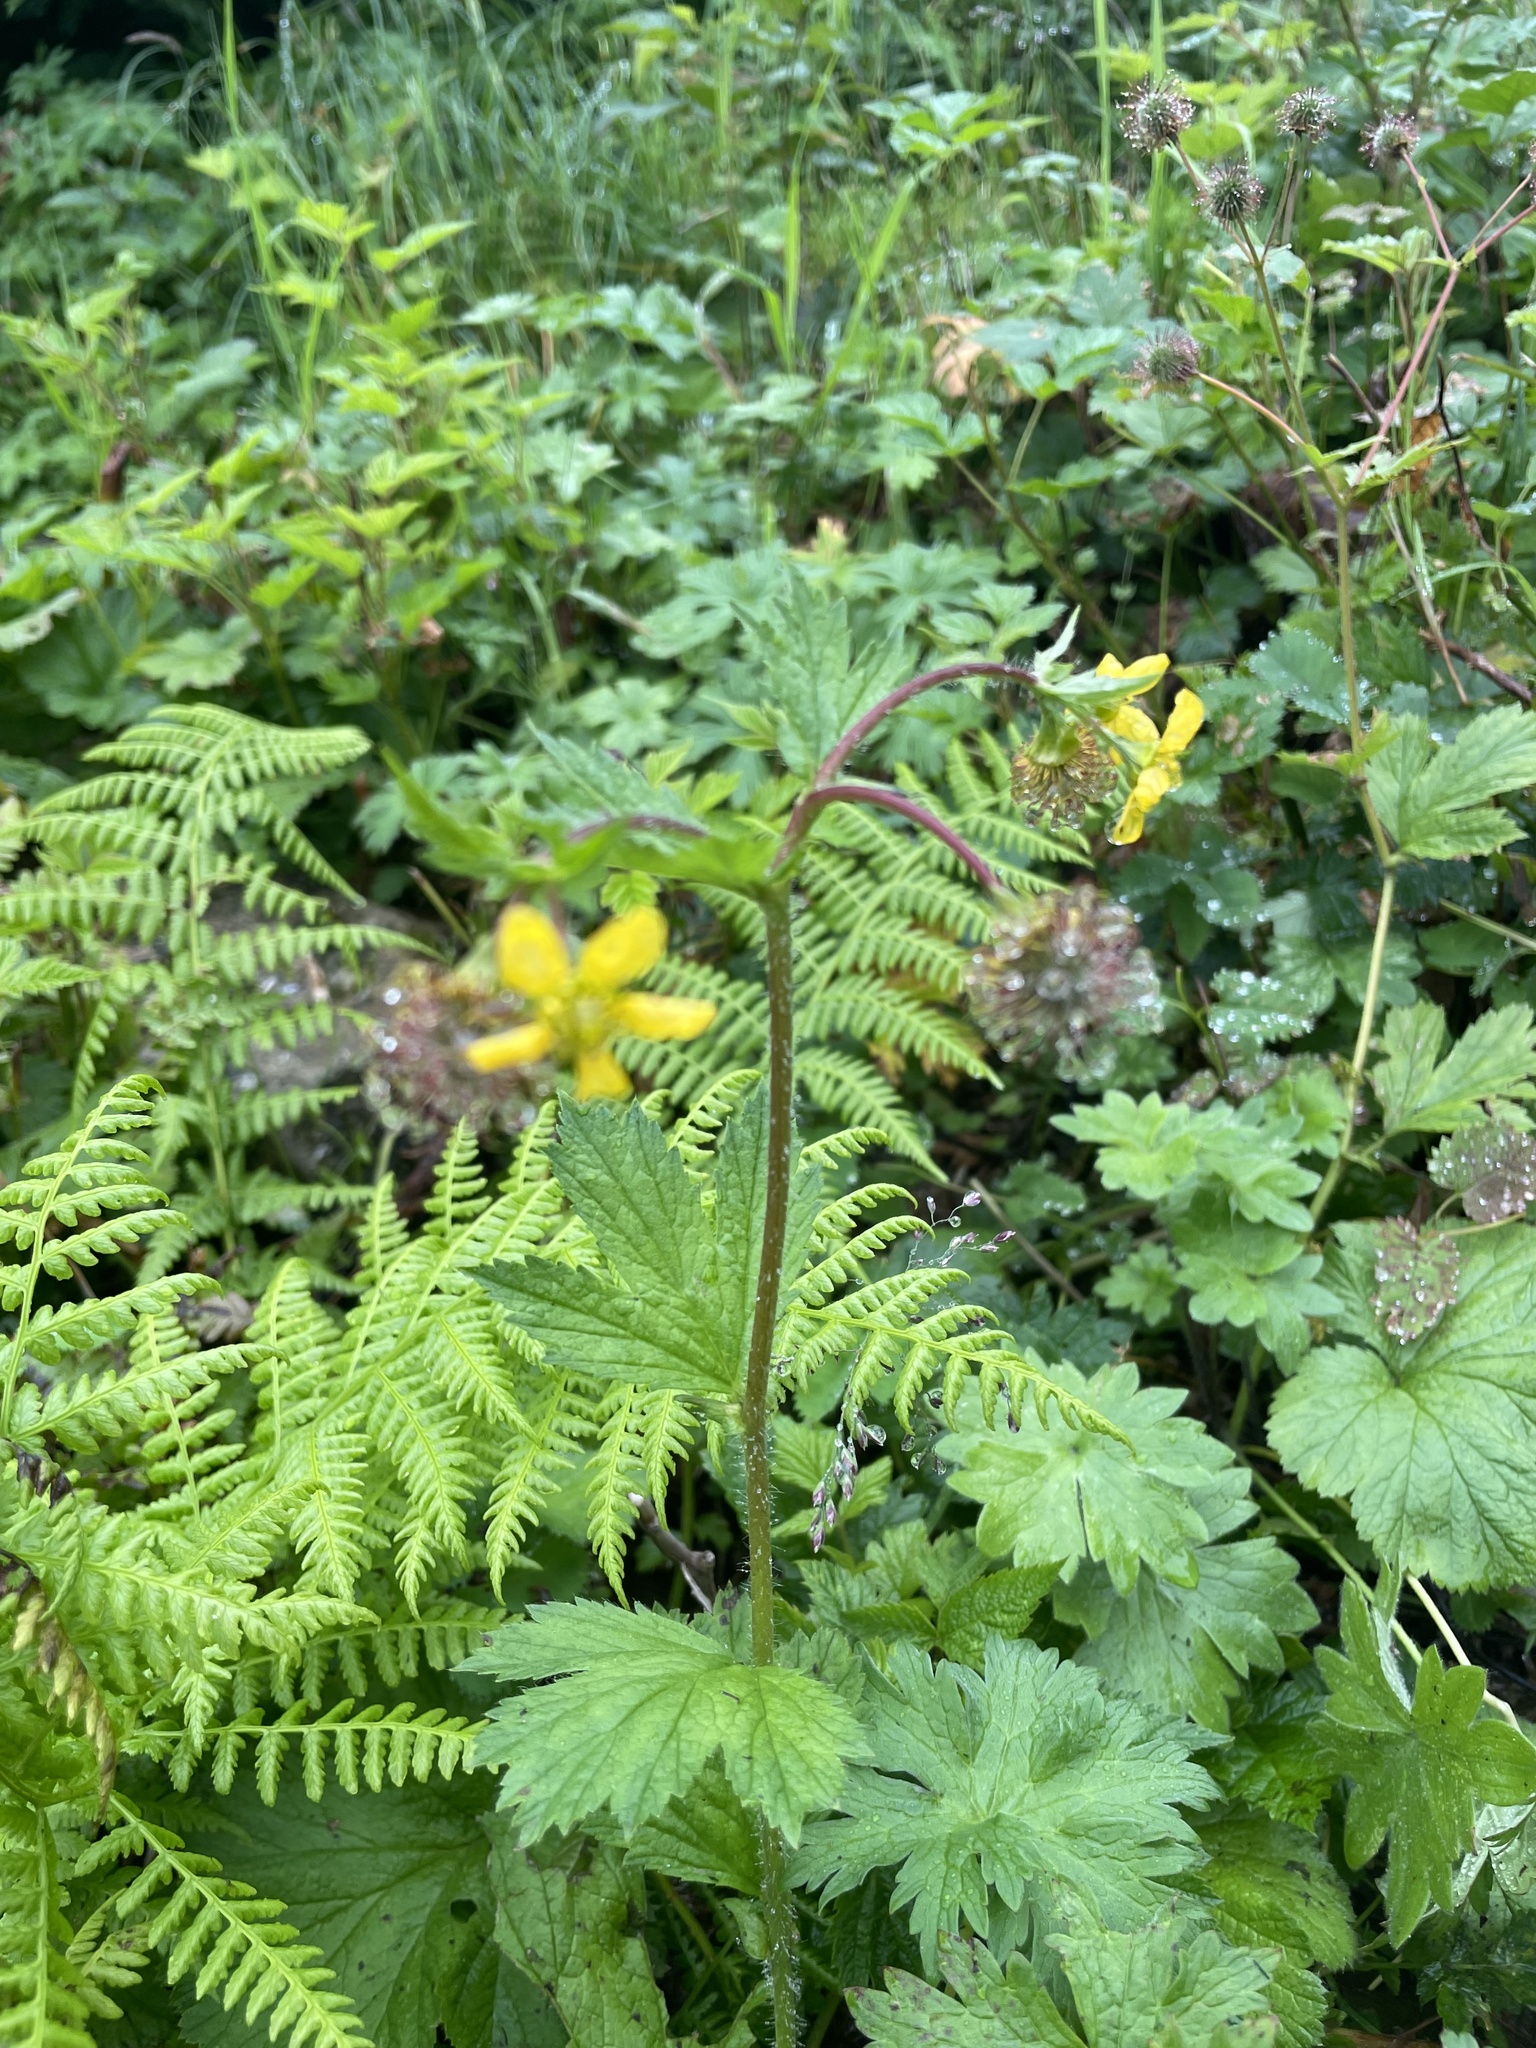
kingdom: Plantae
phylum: Tracheophyta
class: Magnoliopsida
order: Rosales
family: Rosaceae
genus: Geum
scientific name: Geum calthifolium
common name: Caltha-leaved avens
